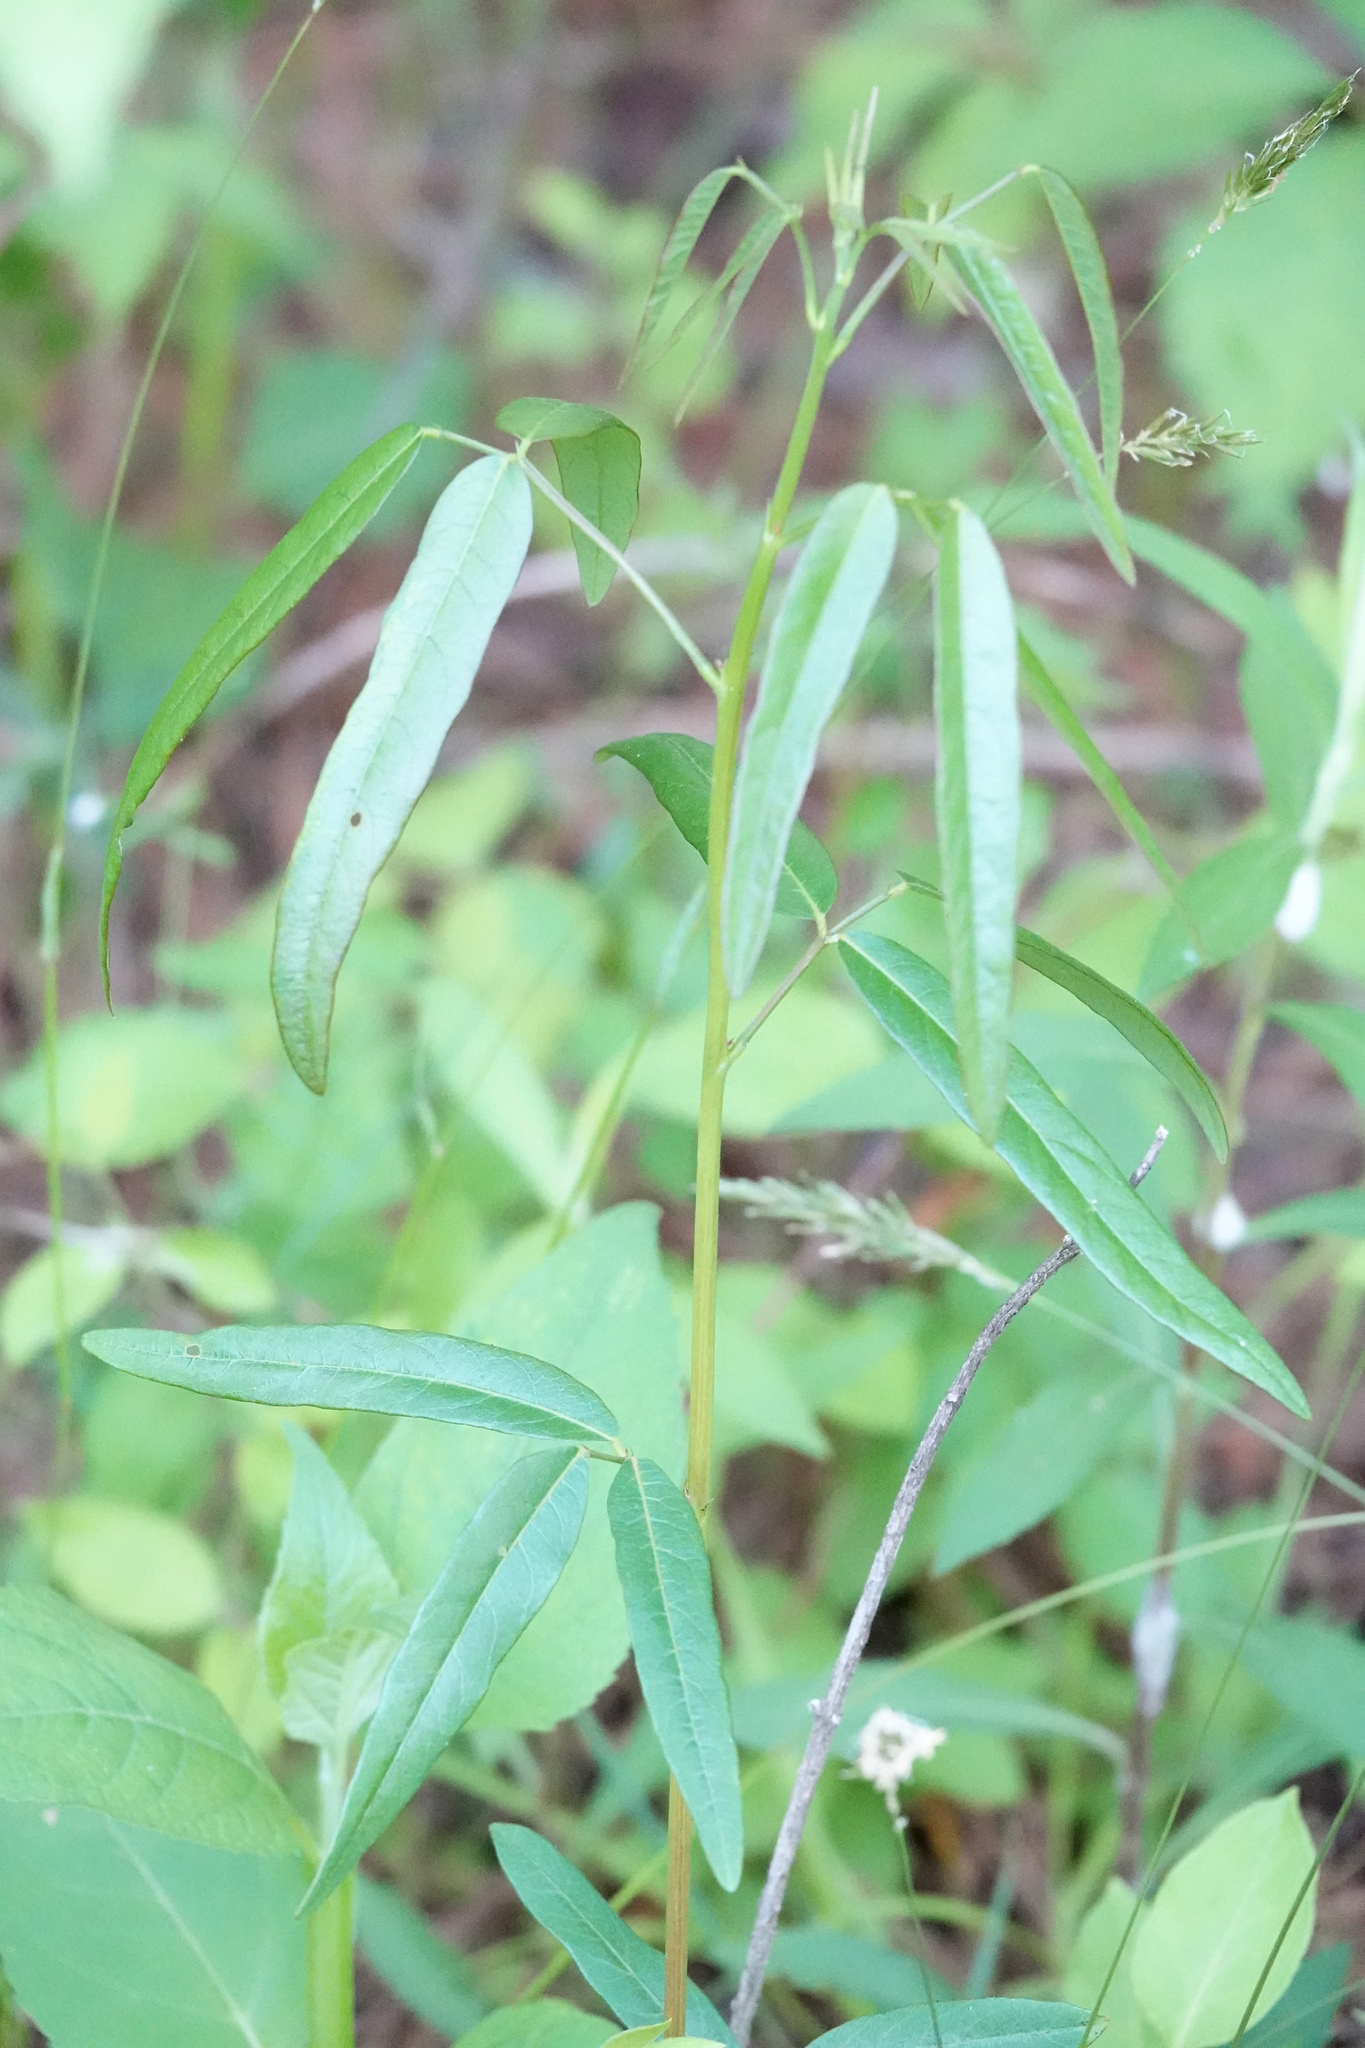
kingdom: Plantae
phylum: Tracheophyta
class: Magnoliopsida
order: Fabales
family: Fabaceae
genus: Desmodium
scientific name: Desmodium paniculatum
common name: Panicled tick-clover
